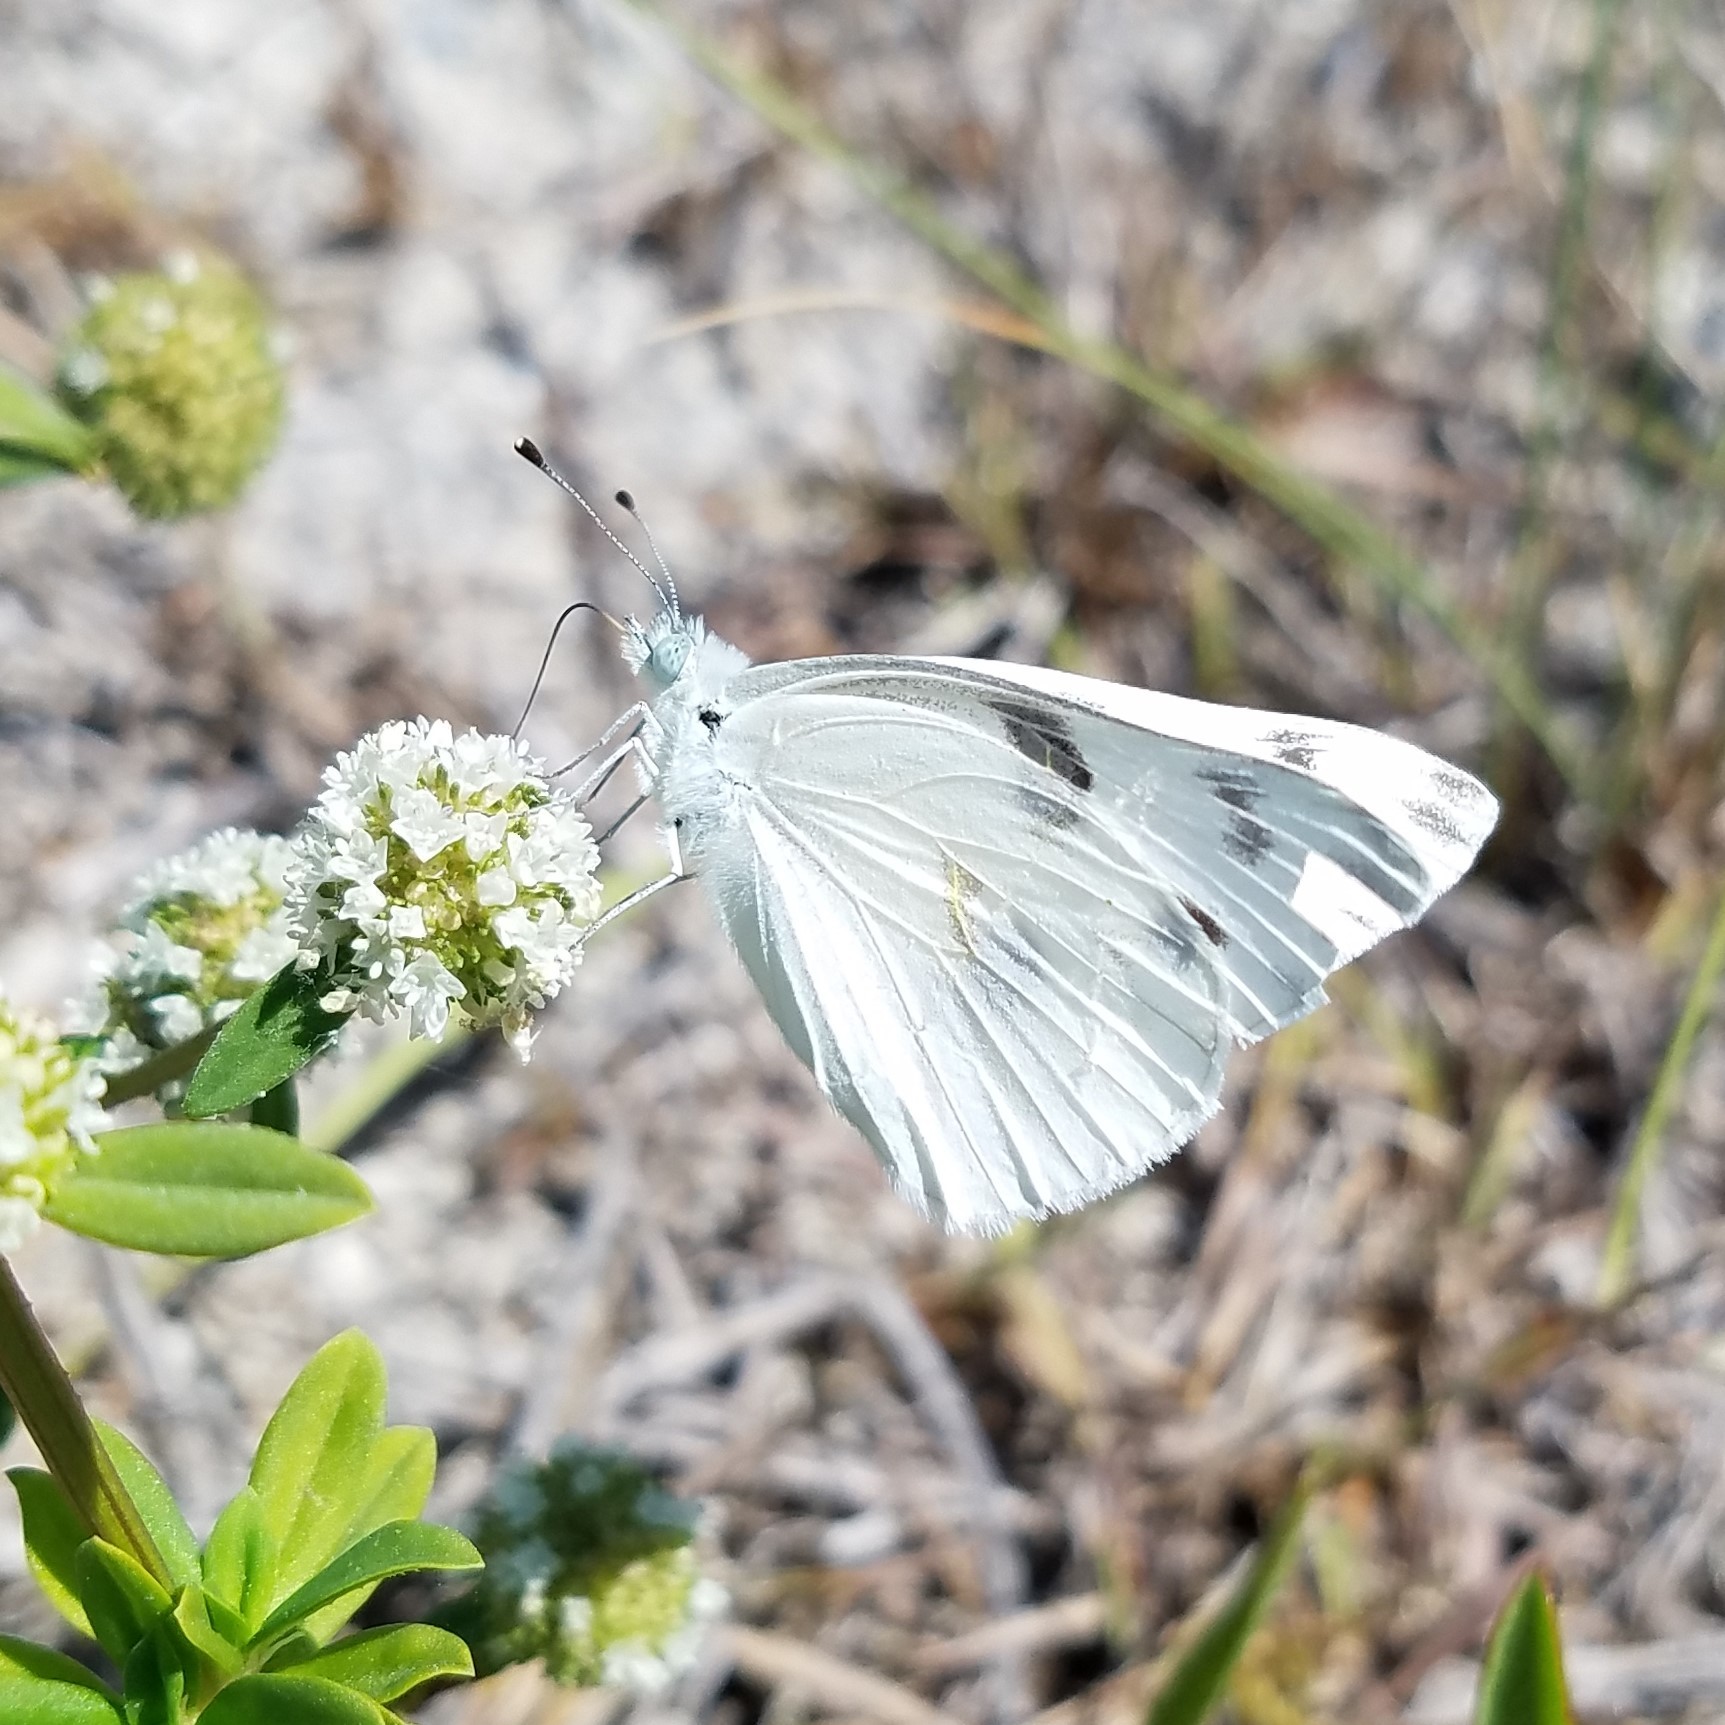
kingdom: Animalia
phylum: Arthropoda
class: Insecta
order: Lepidoptera
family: Pieridae
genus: Pontia
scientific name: Pontia protodice
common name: Checkered white
